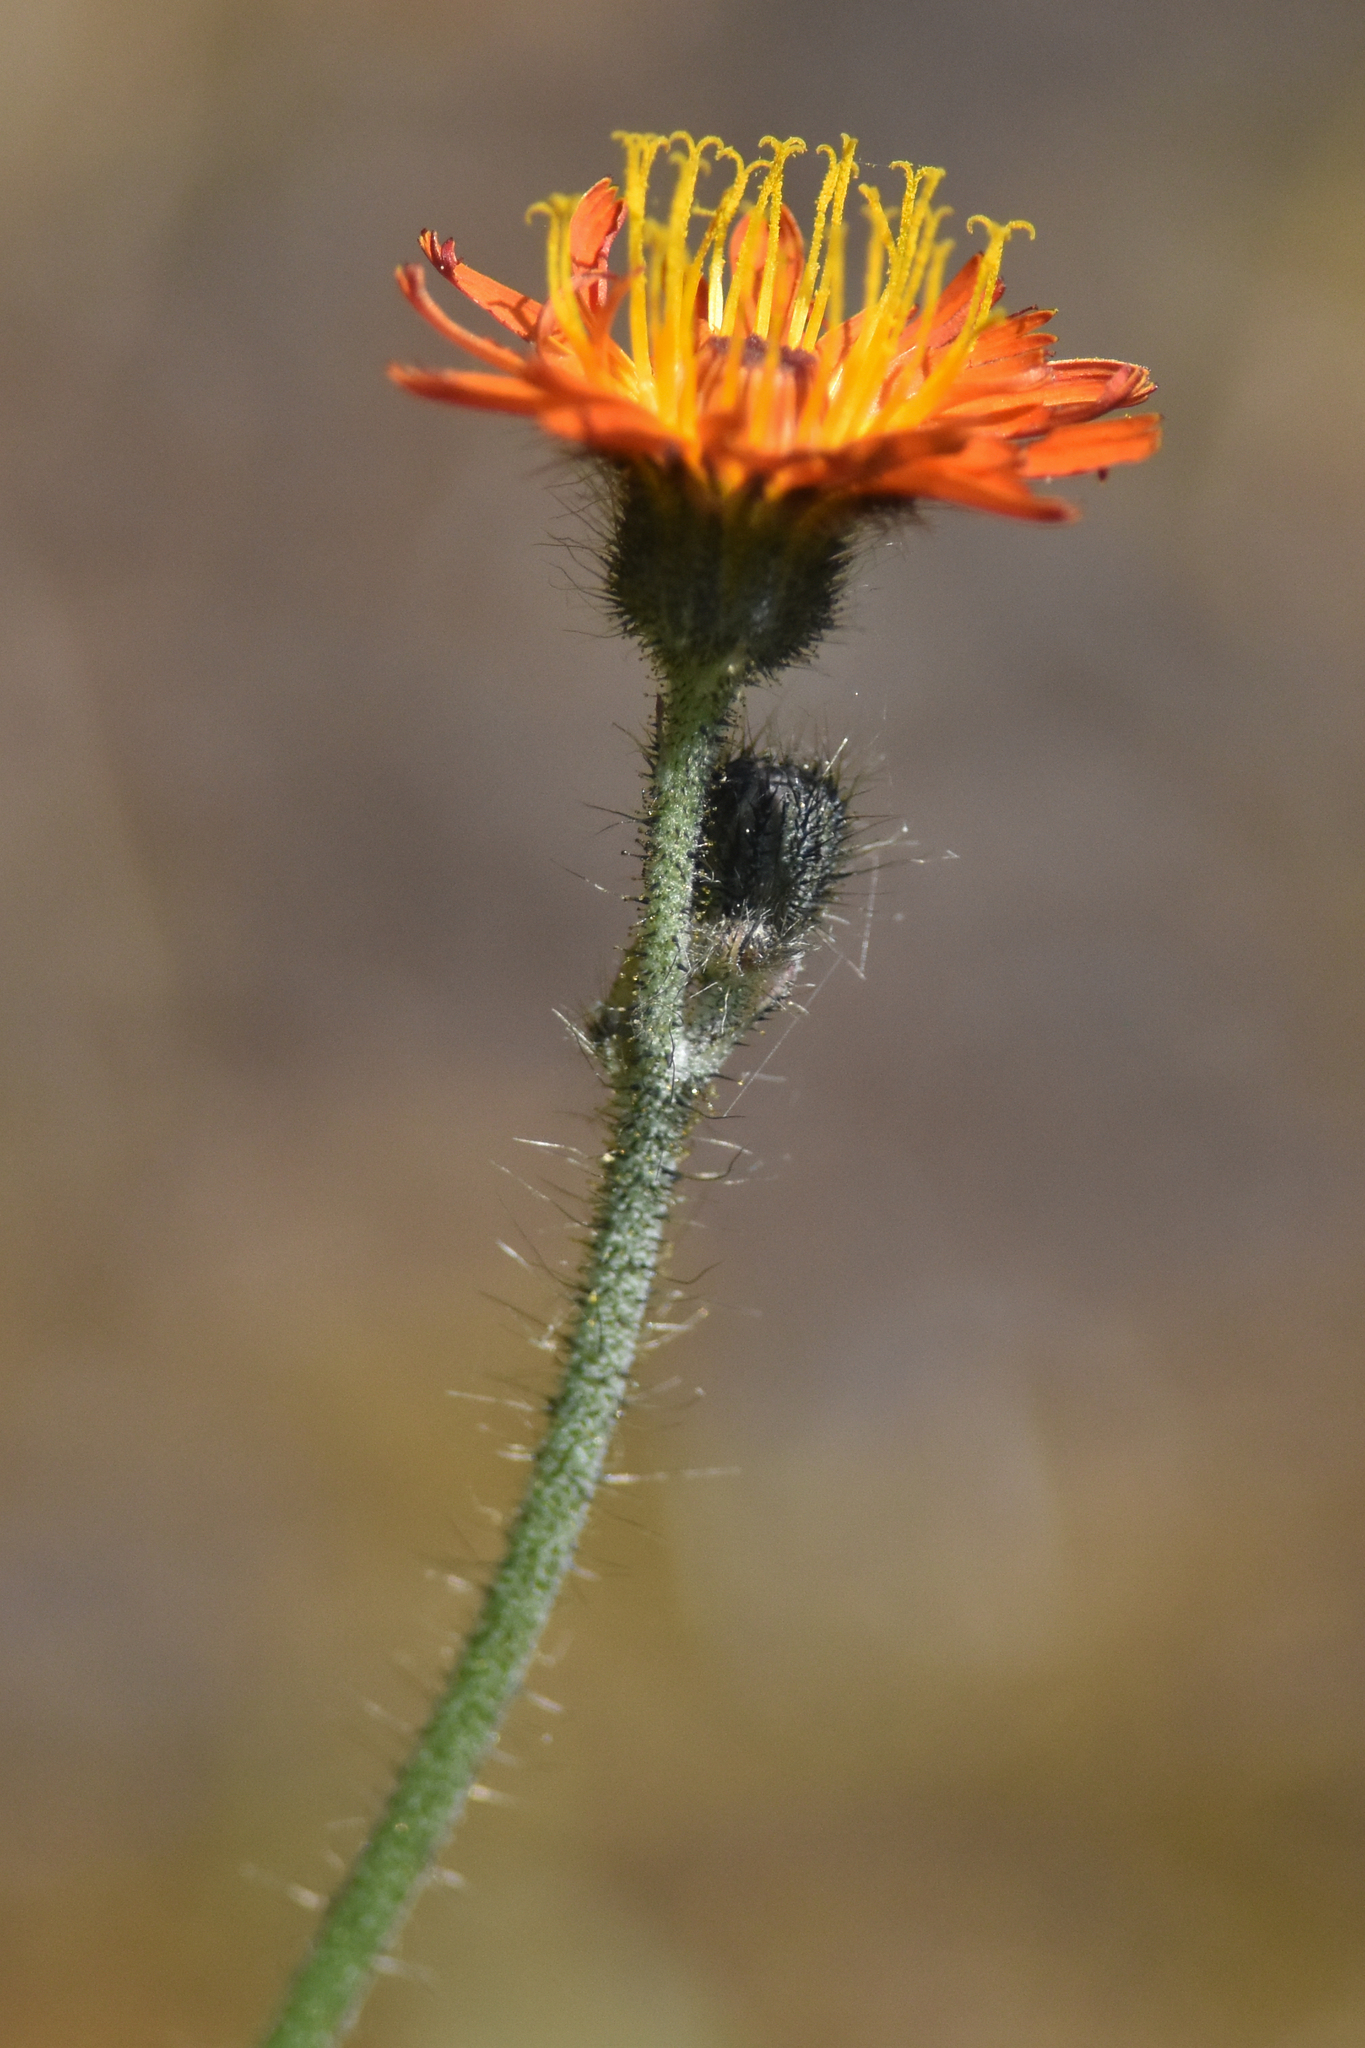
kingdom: Plantae
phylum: Tracheophyta
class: Magnoliopsida
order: Asterales
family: Asteraceae
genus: Pilosella
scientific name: Pilosella aurantiaca
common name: Fox-and-cubs
